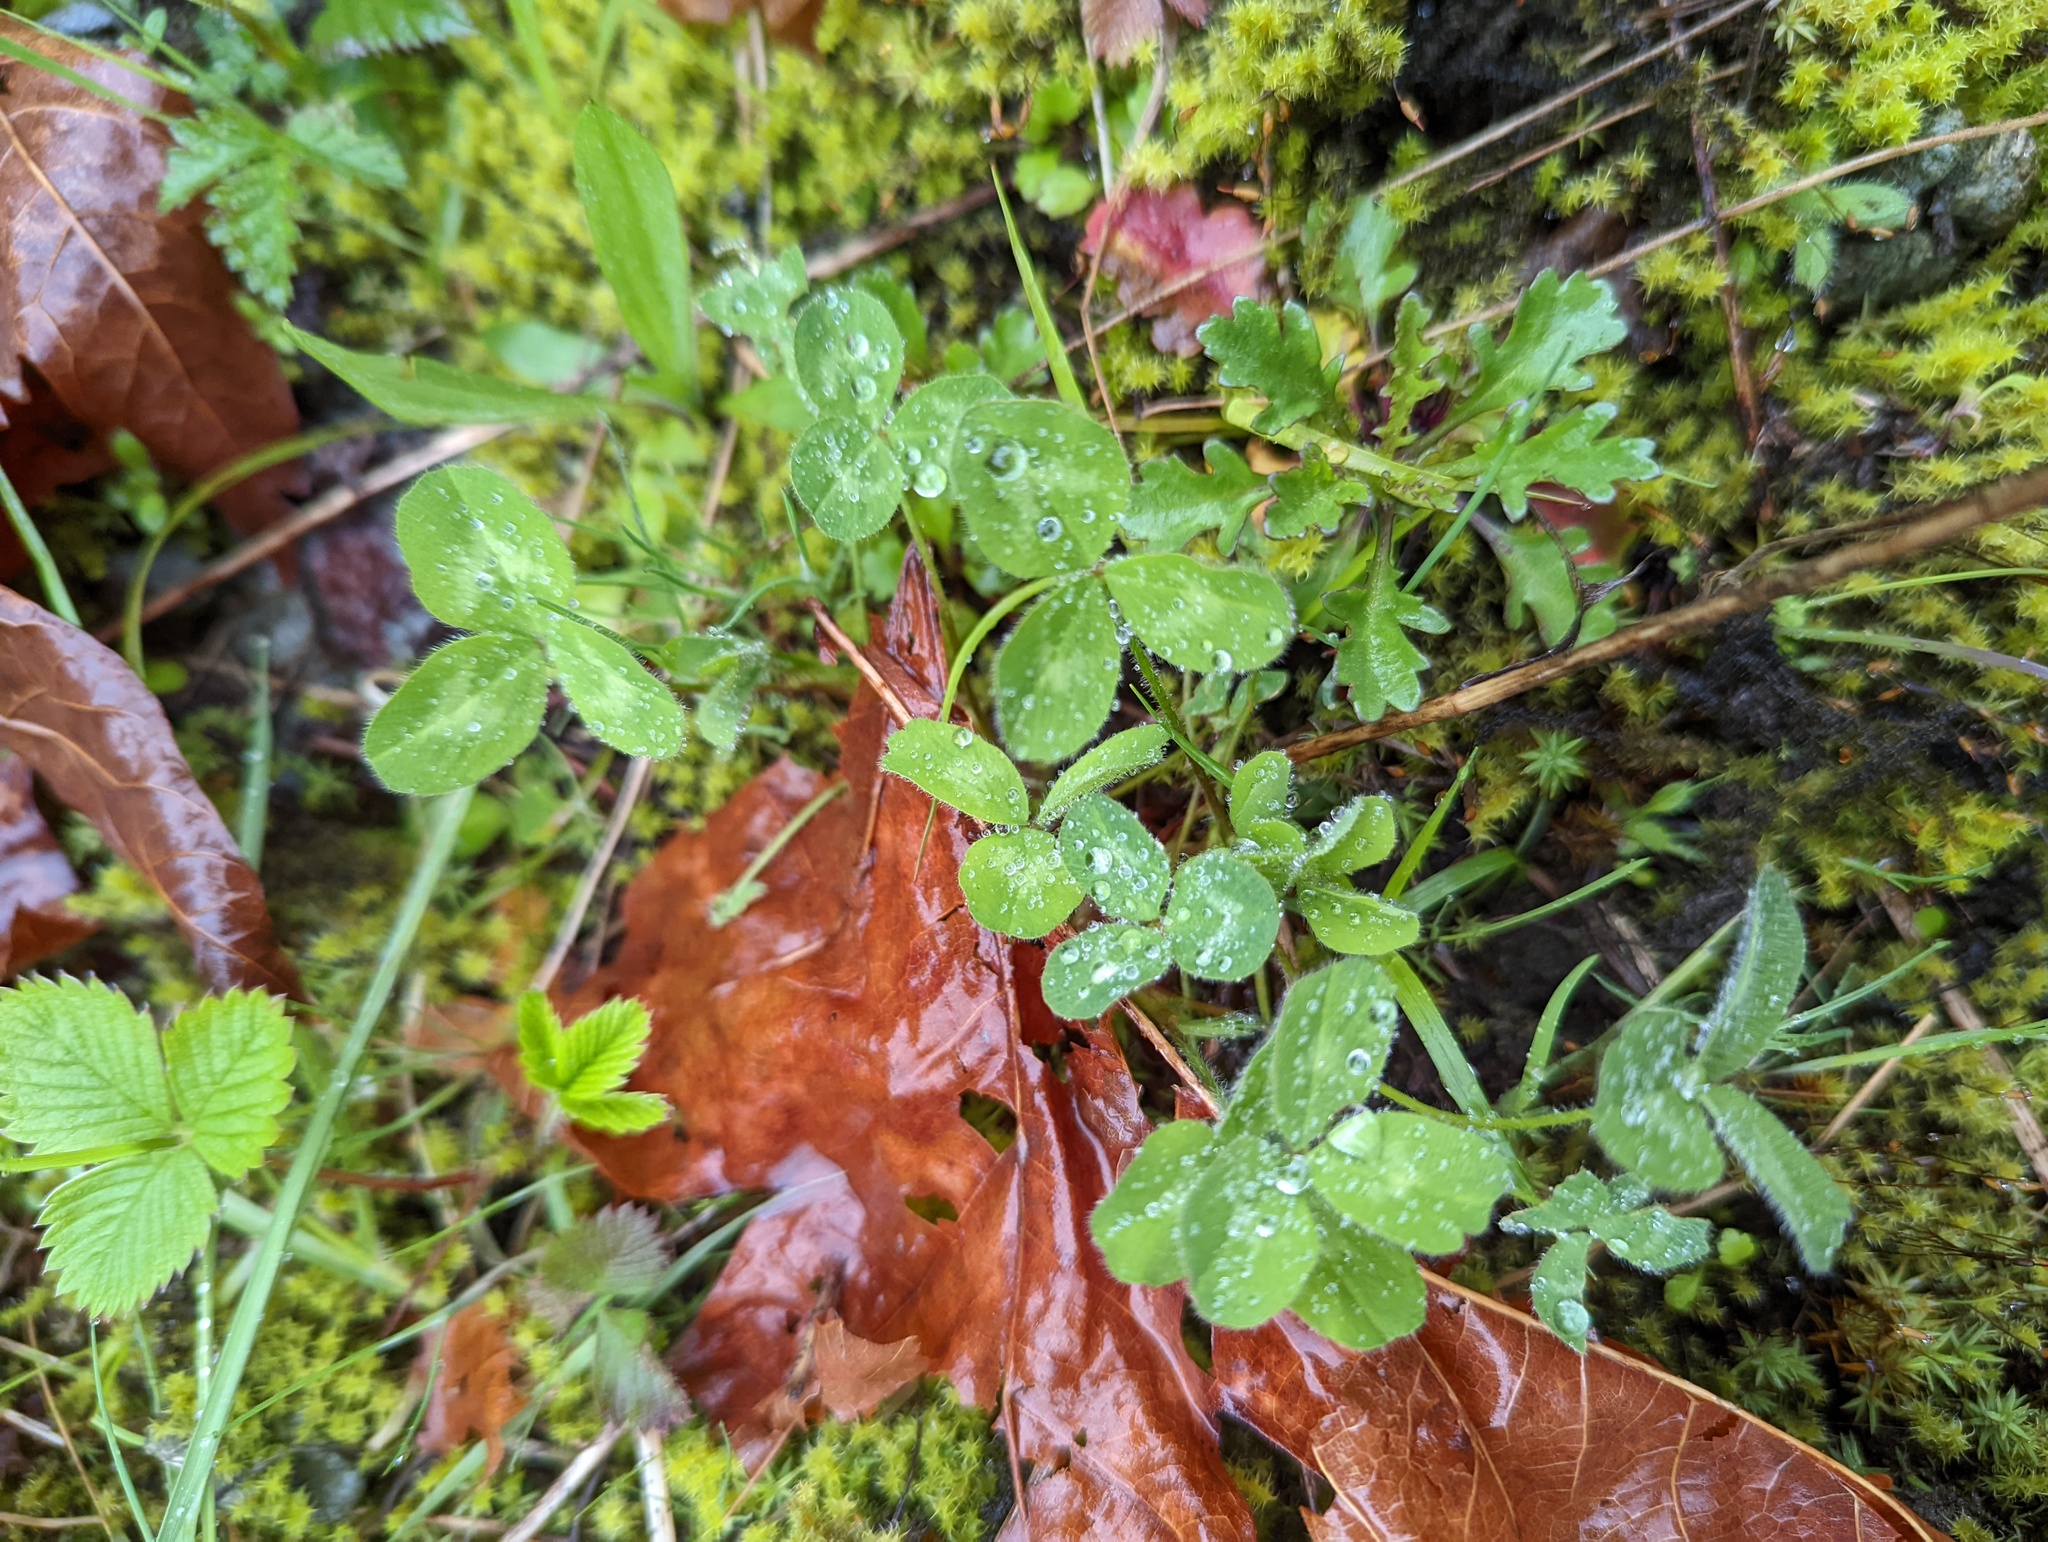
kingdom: Plantae
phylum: Tracheophyta
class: Magnoliopsida
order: Fabales
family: Fabaceae
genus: Trifolium
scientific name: Trifolium pratense
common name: Red clover
